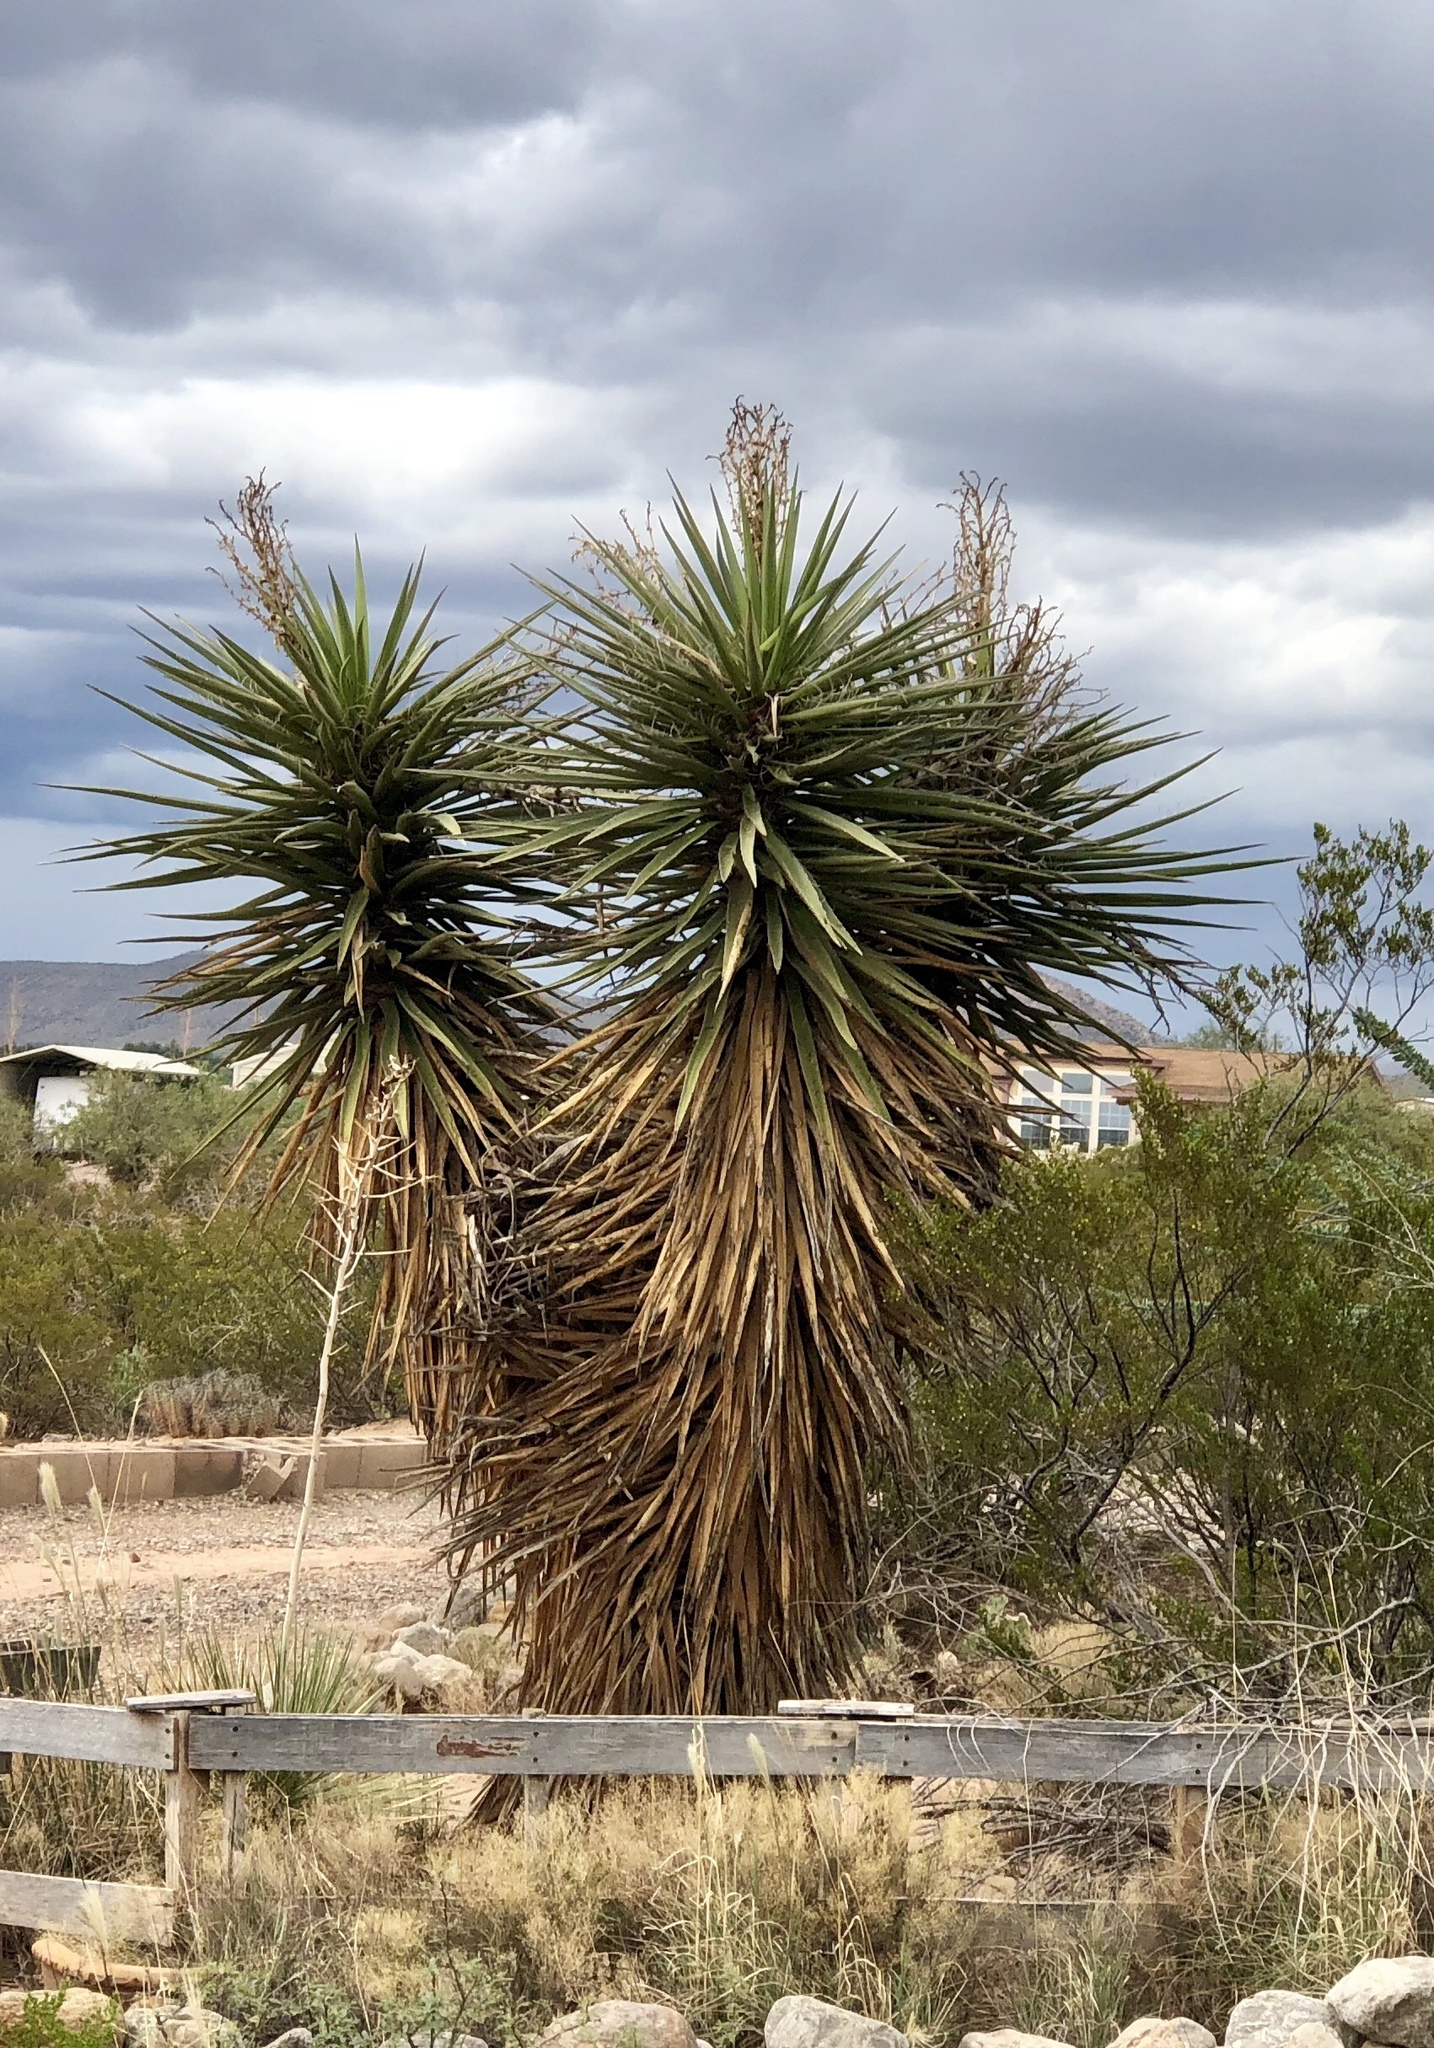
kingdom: Plantae
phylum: Tracheophyta
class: Liliopsida
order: Asparagales
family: Asparagaceae
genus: Yucca
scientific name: Yucca treculiana
